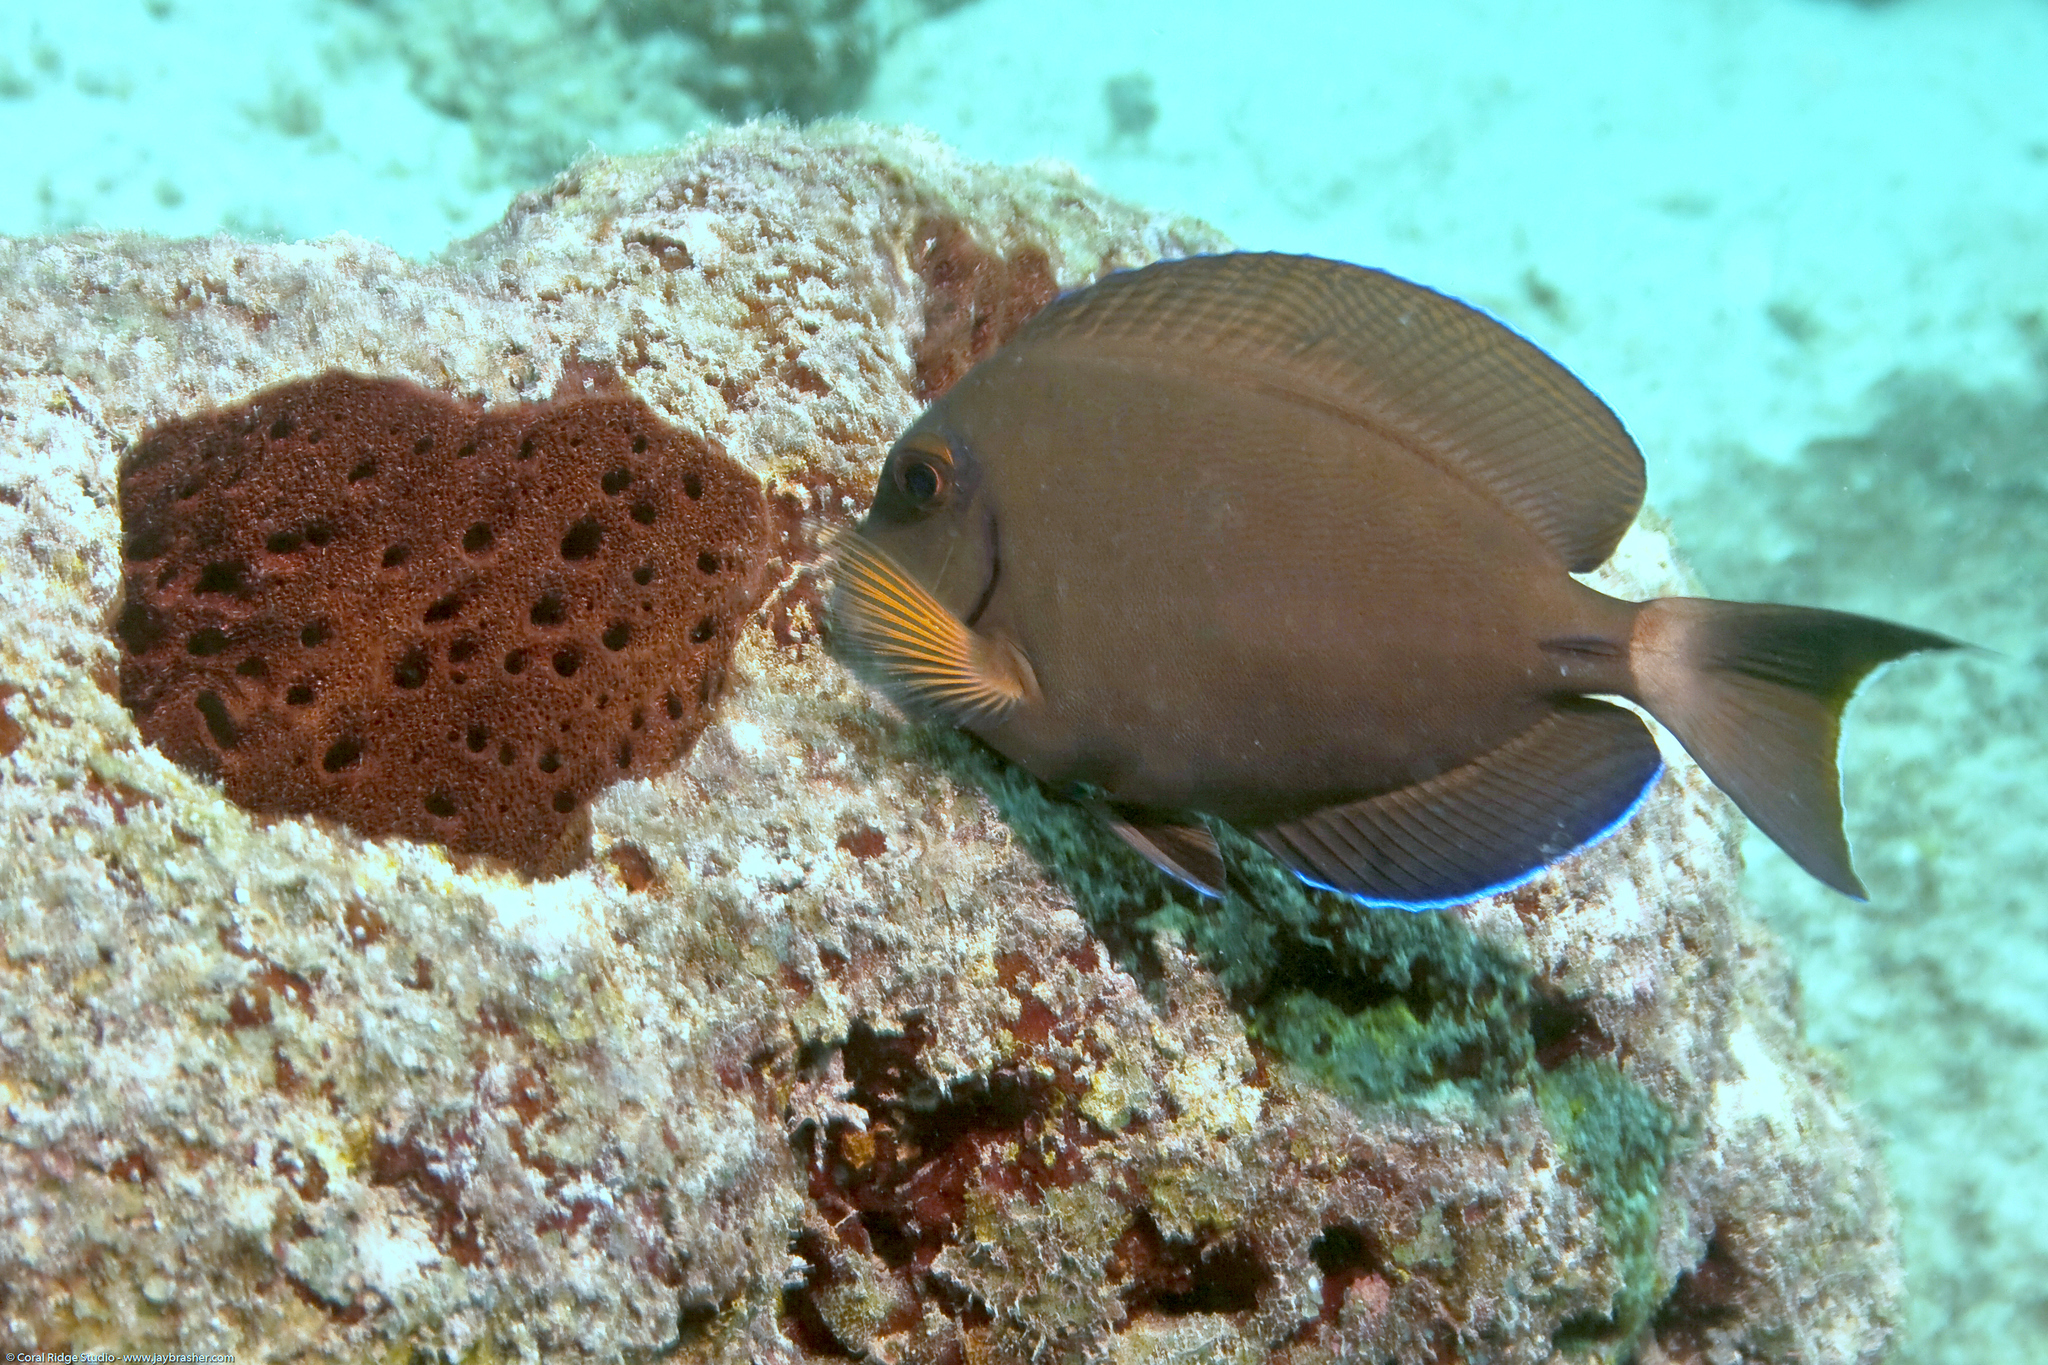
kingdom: Animalia
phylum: Chordata
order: Perciformes
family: Acanthuridae
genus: Acanthurus
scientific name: Acanthurus bahianus
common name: Ocean surgeon
